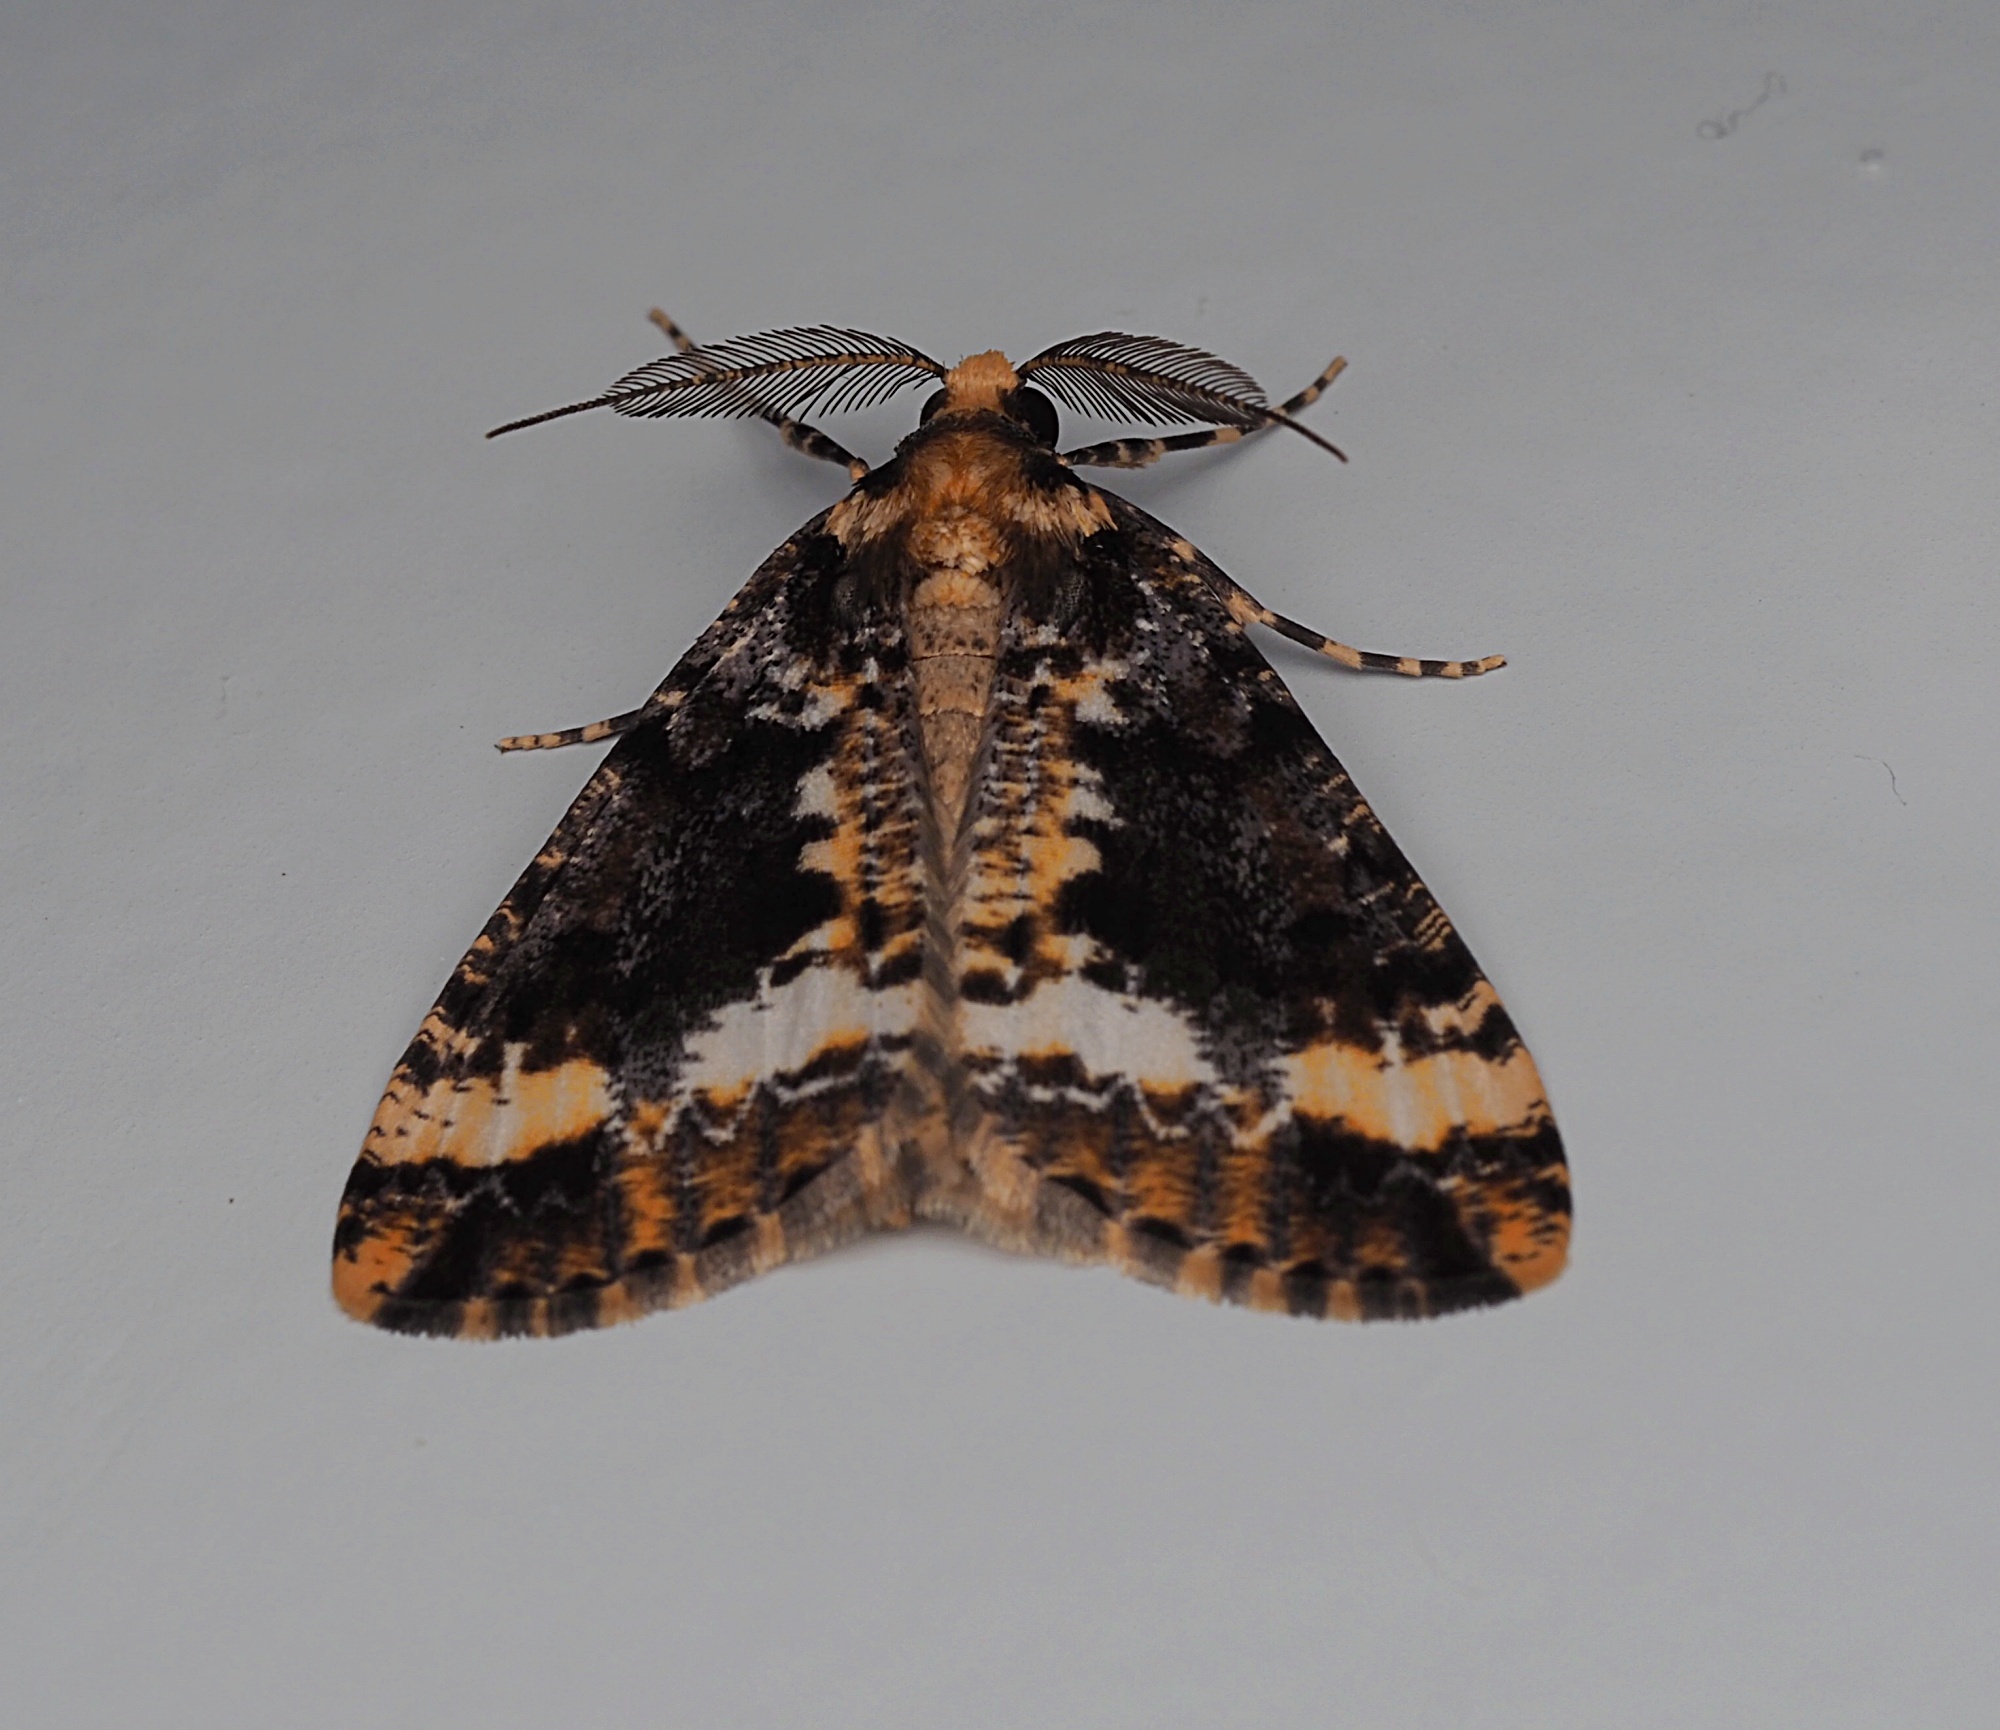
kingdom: Animalia
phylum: Arthropoda
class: Insecta
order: Lepidoptera
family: Geometridae
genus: Pseudocoremia
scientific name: Pseudocoremia leucelaea
